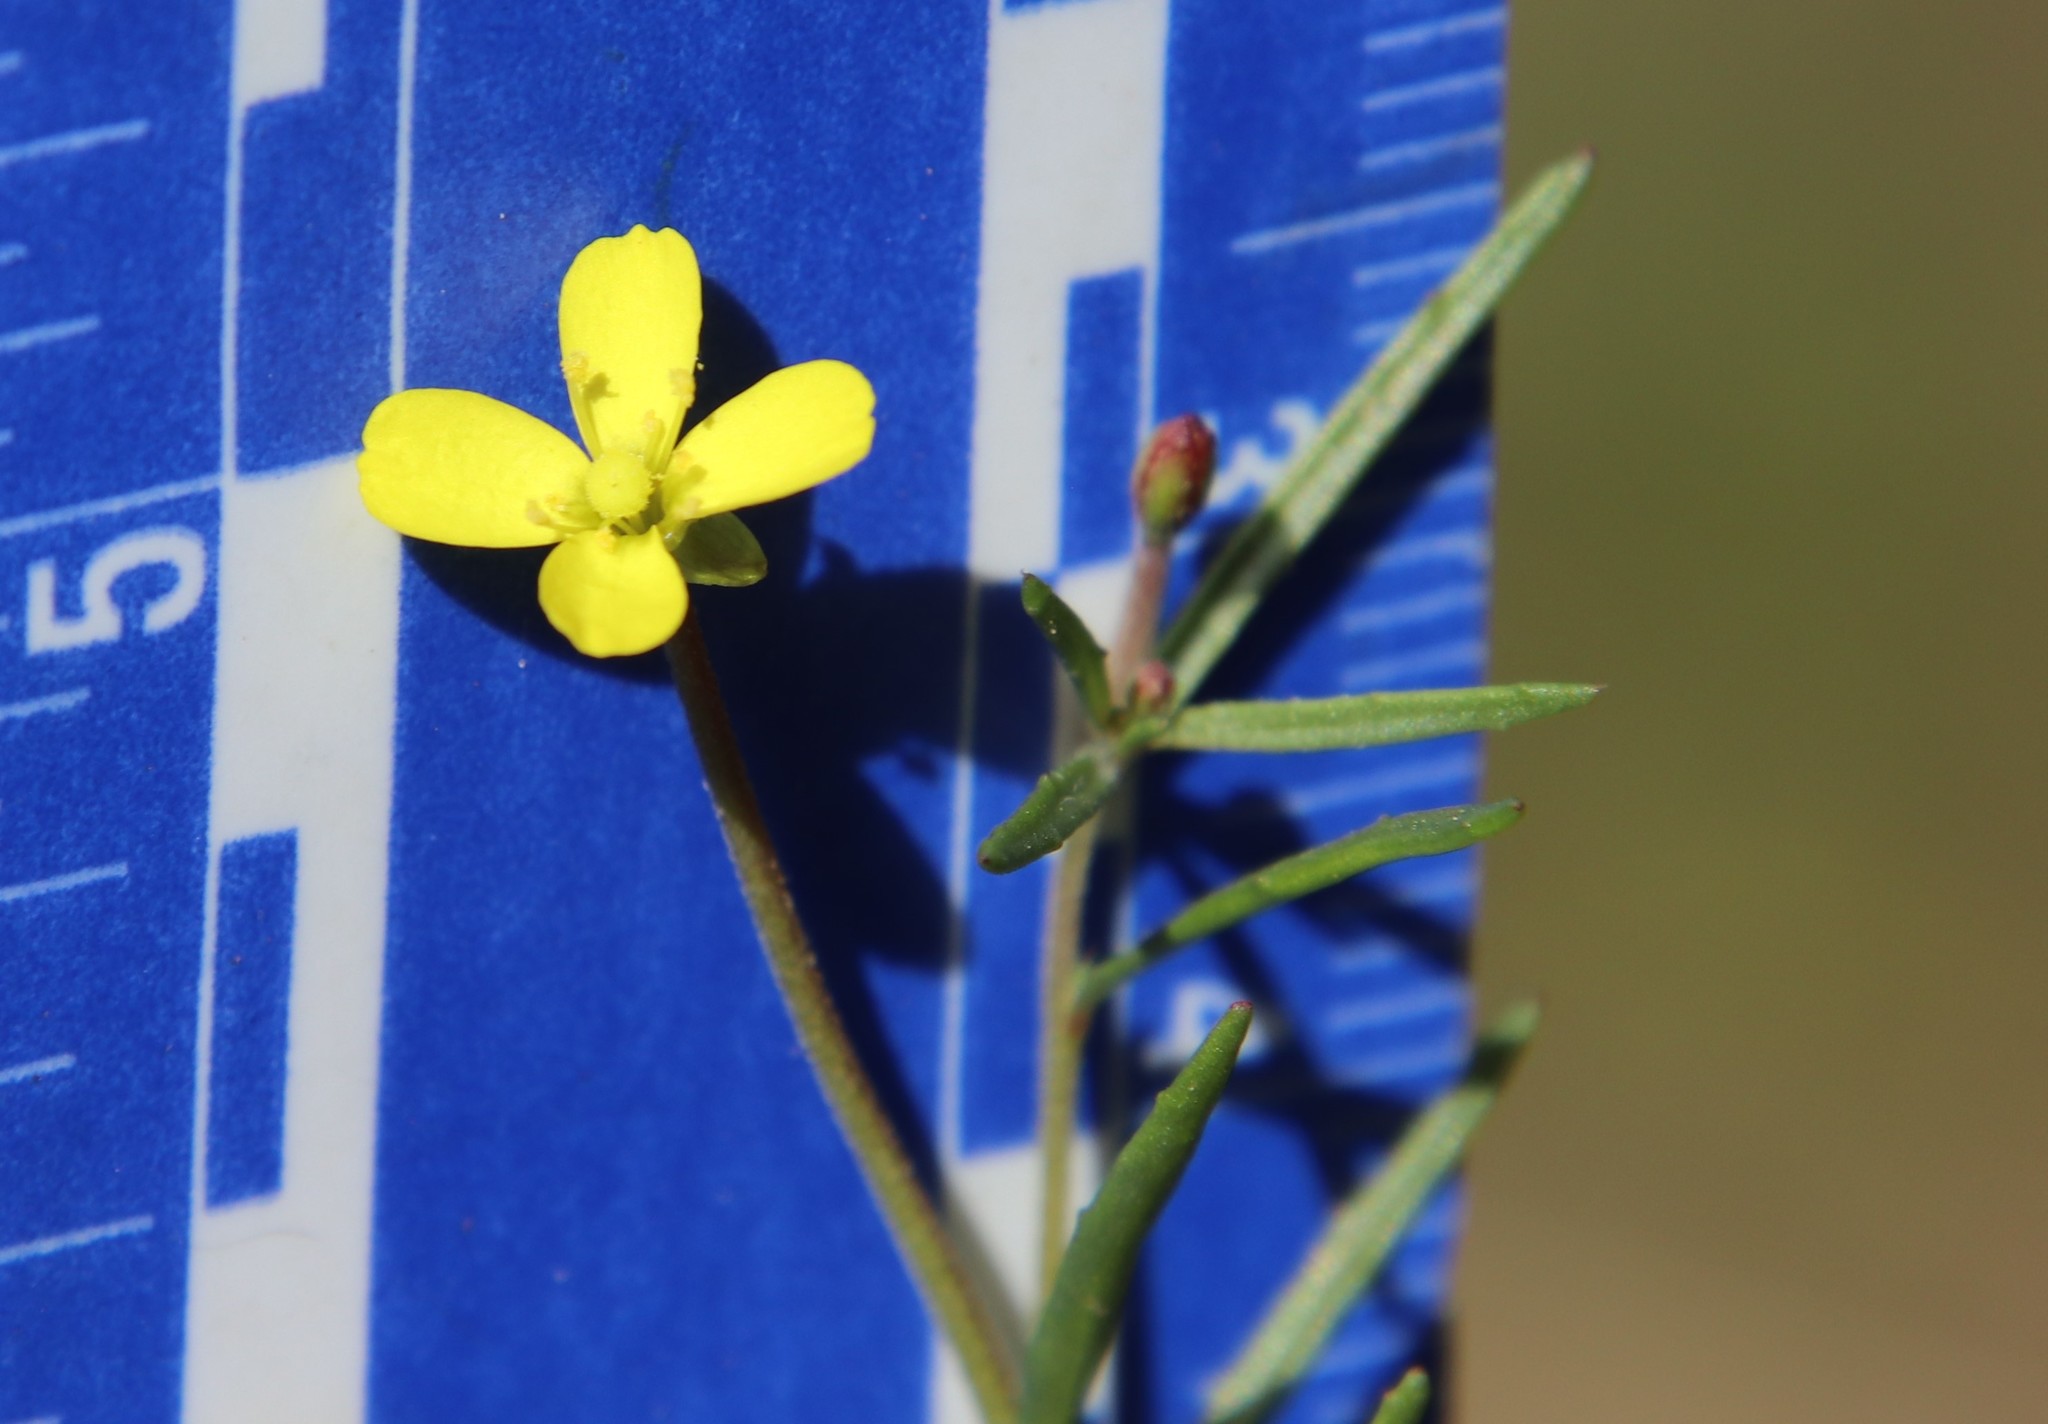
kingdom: Plantae
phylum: Tracheophyta
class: Magnoliopsida
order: Myrtales
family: Onagraceae
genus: Camissonia
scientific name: Camissonia strigulosa
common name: Contorted-primrose
